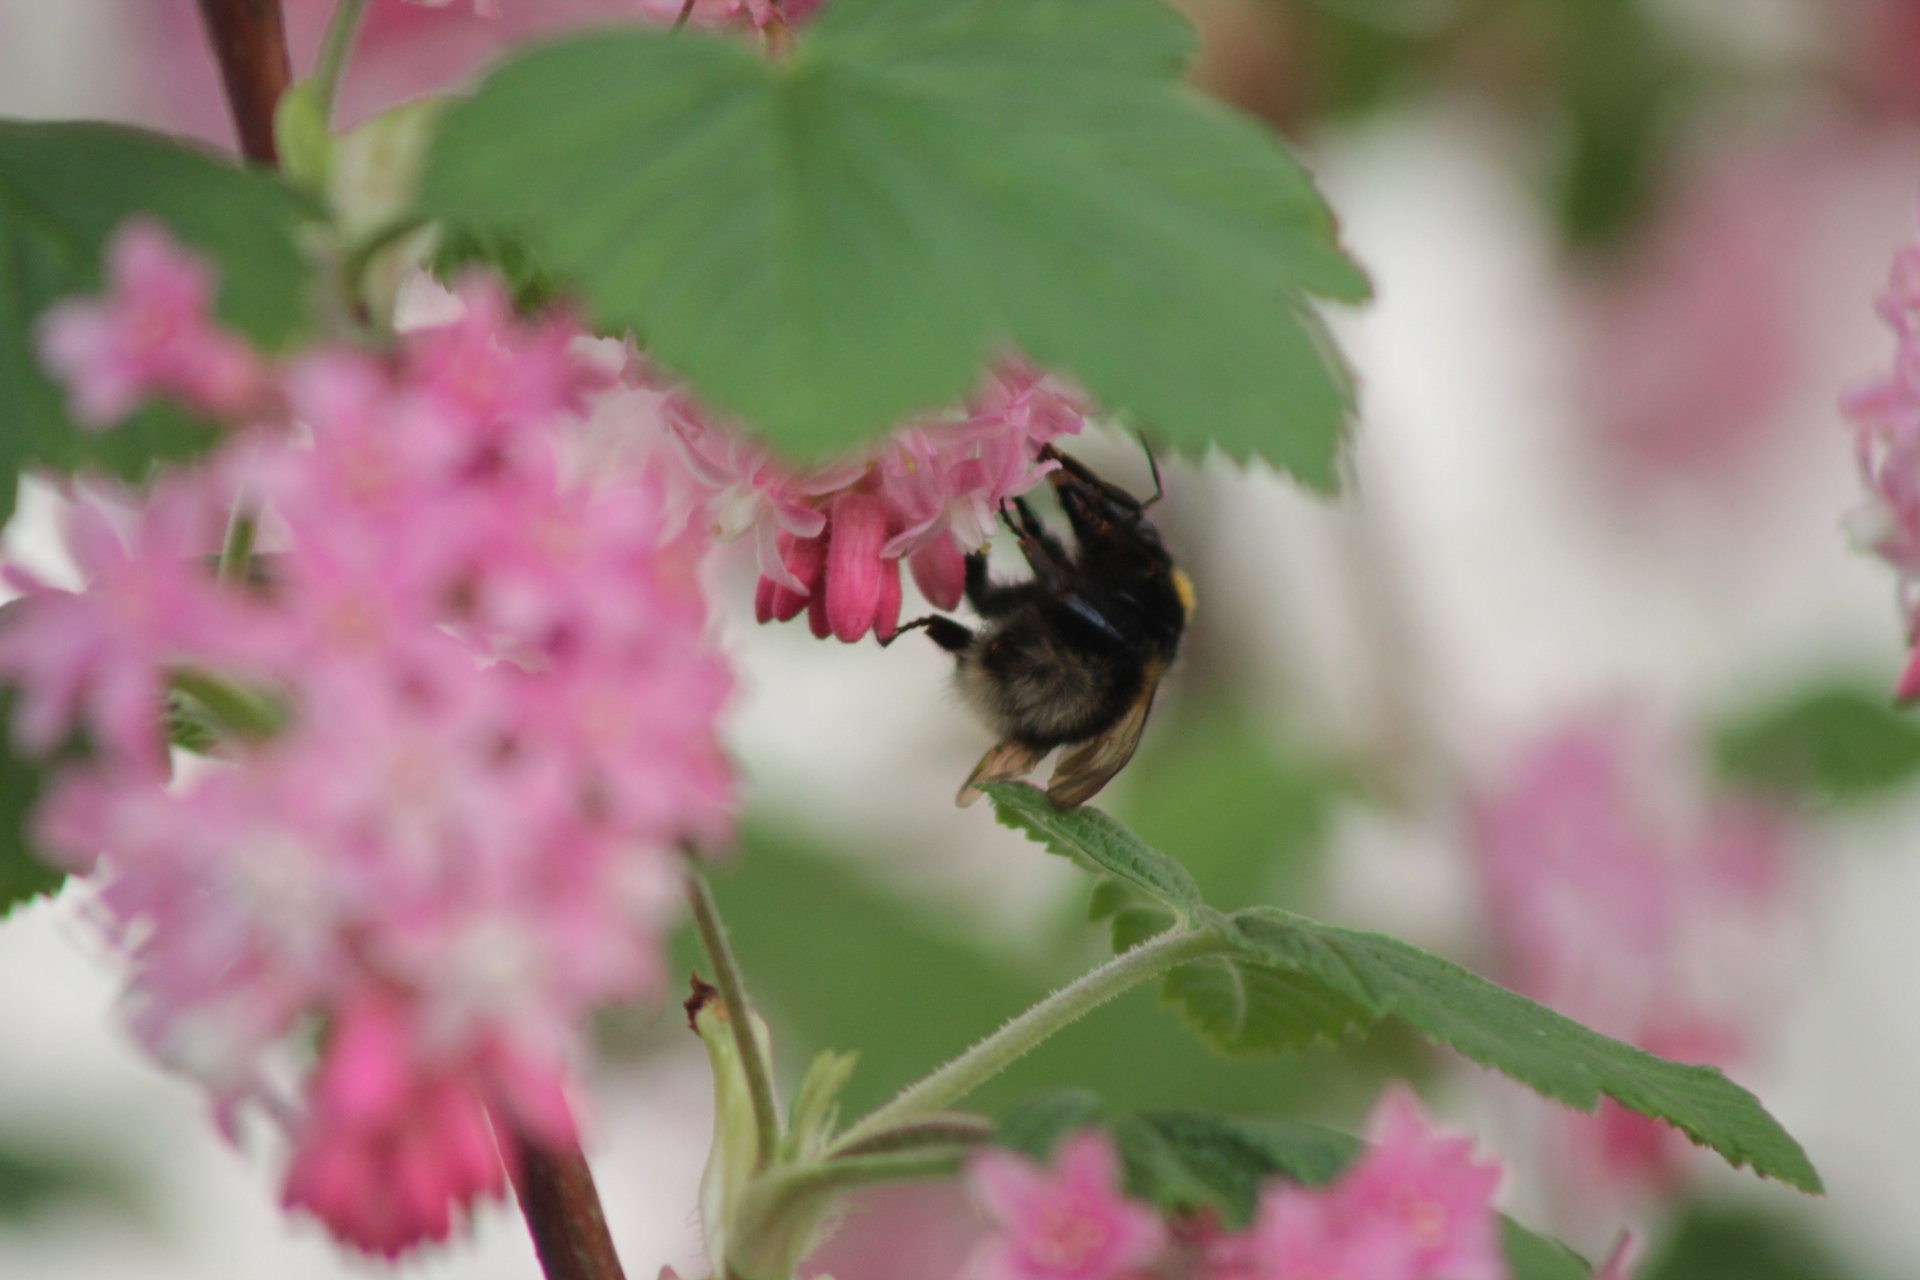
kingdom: Animalia
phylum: Arthropoda
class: Insecta
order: Hymenoptera
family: Apidae
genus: Bombus
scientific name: Bombus hortorum
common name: Garden bumblebee
